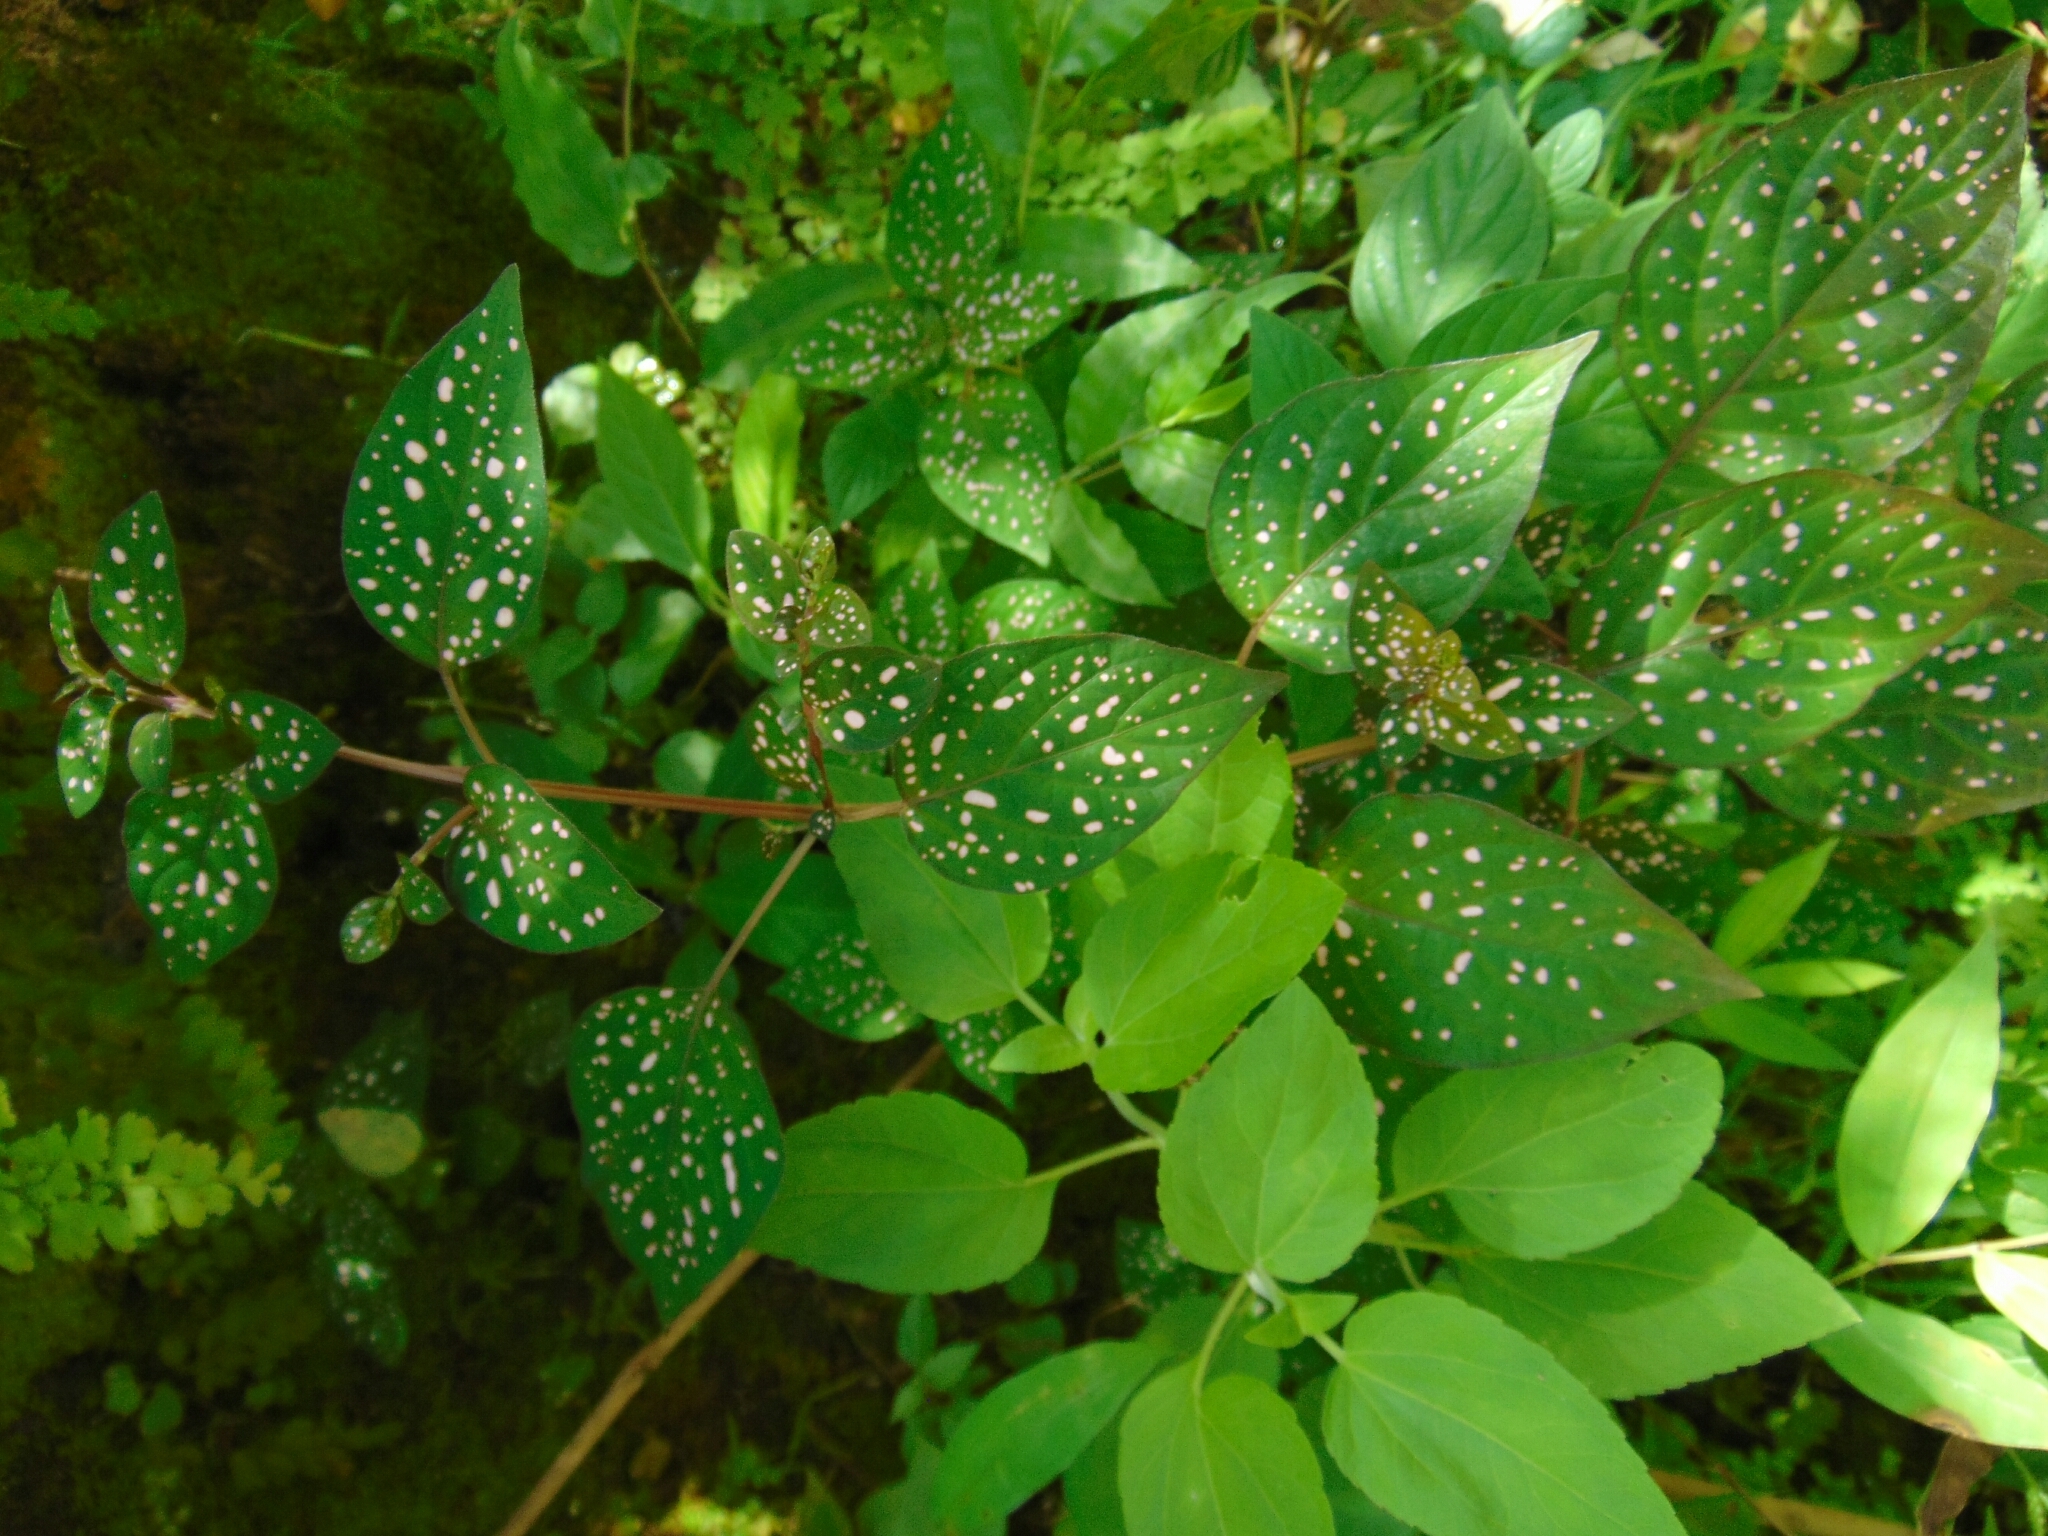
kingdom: Plantae
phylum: Tracheophyta
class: Magnoliopsida
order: Lamiales
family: Acanthaceae
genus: Hypoestes
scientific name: Hypoestes phyllostachya
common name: Polkadot-plant
